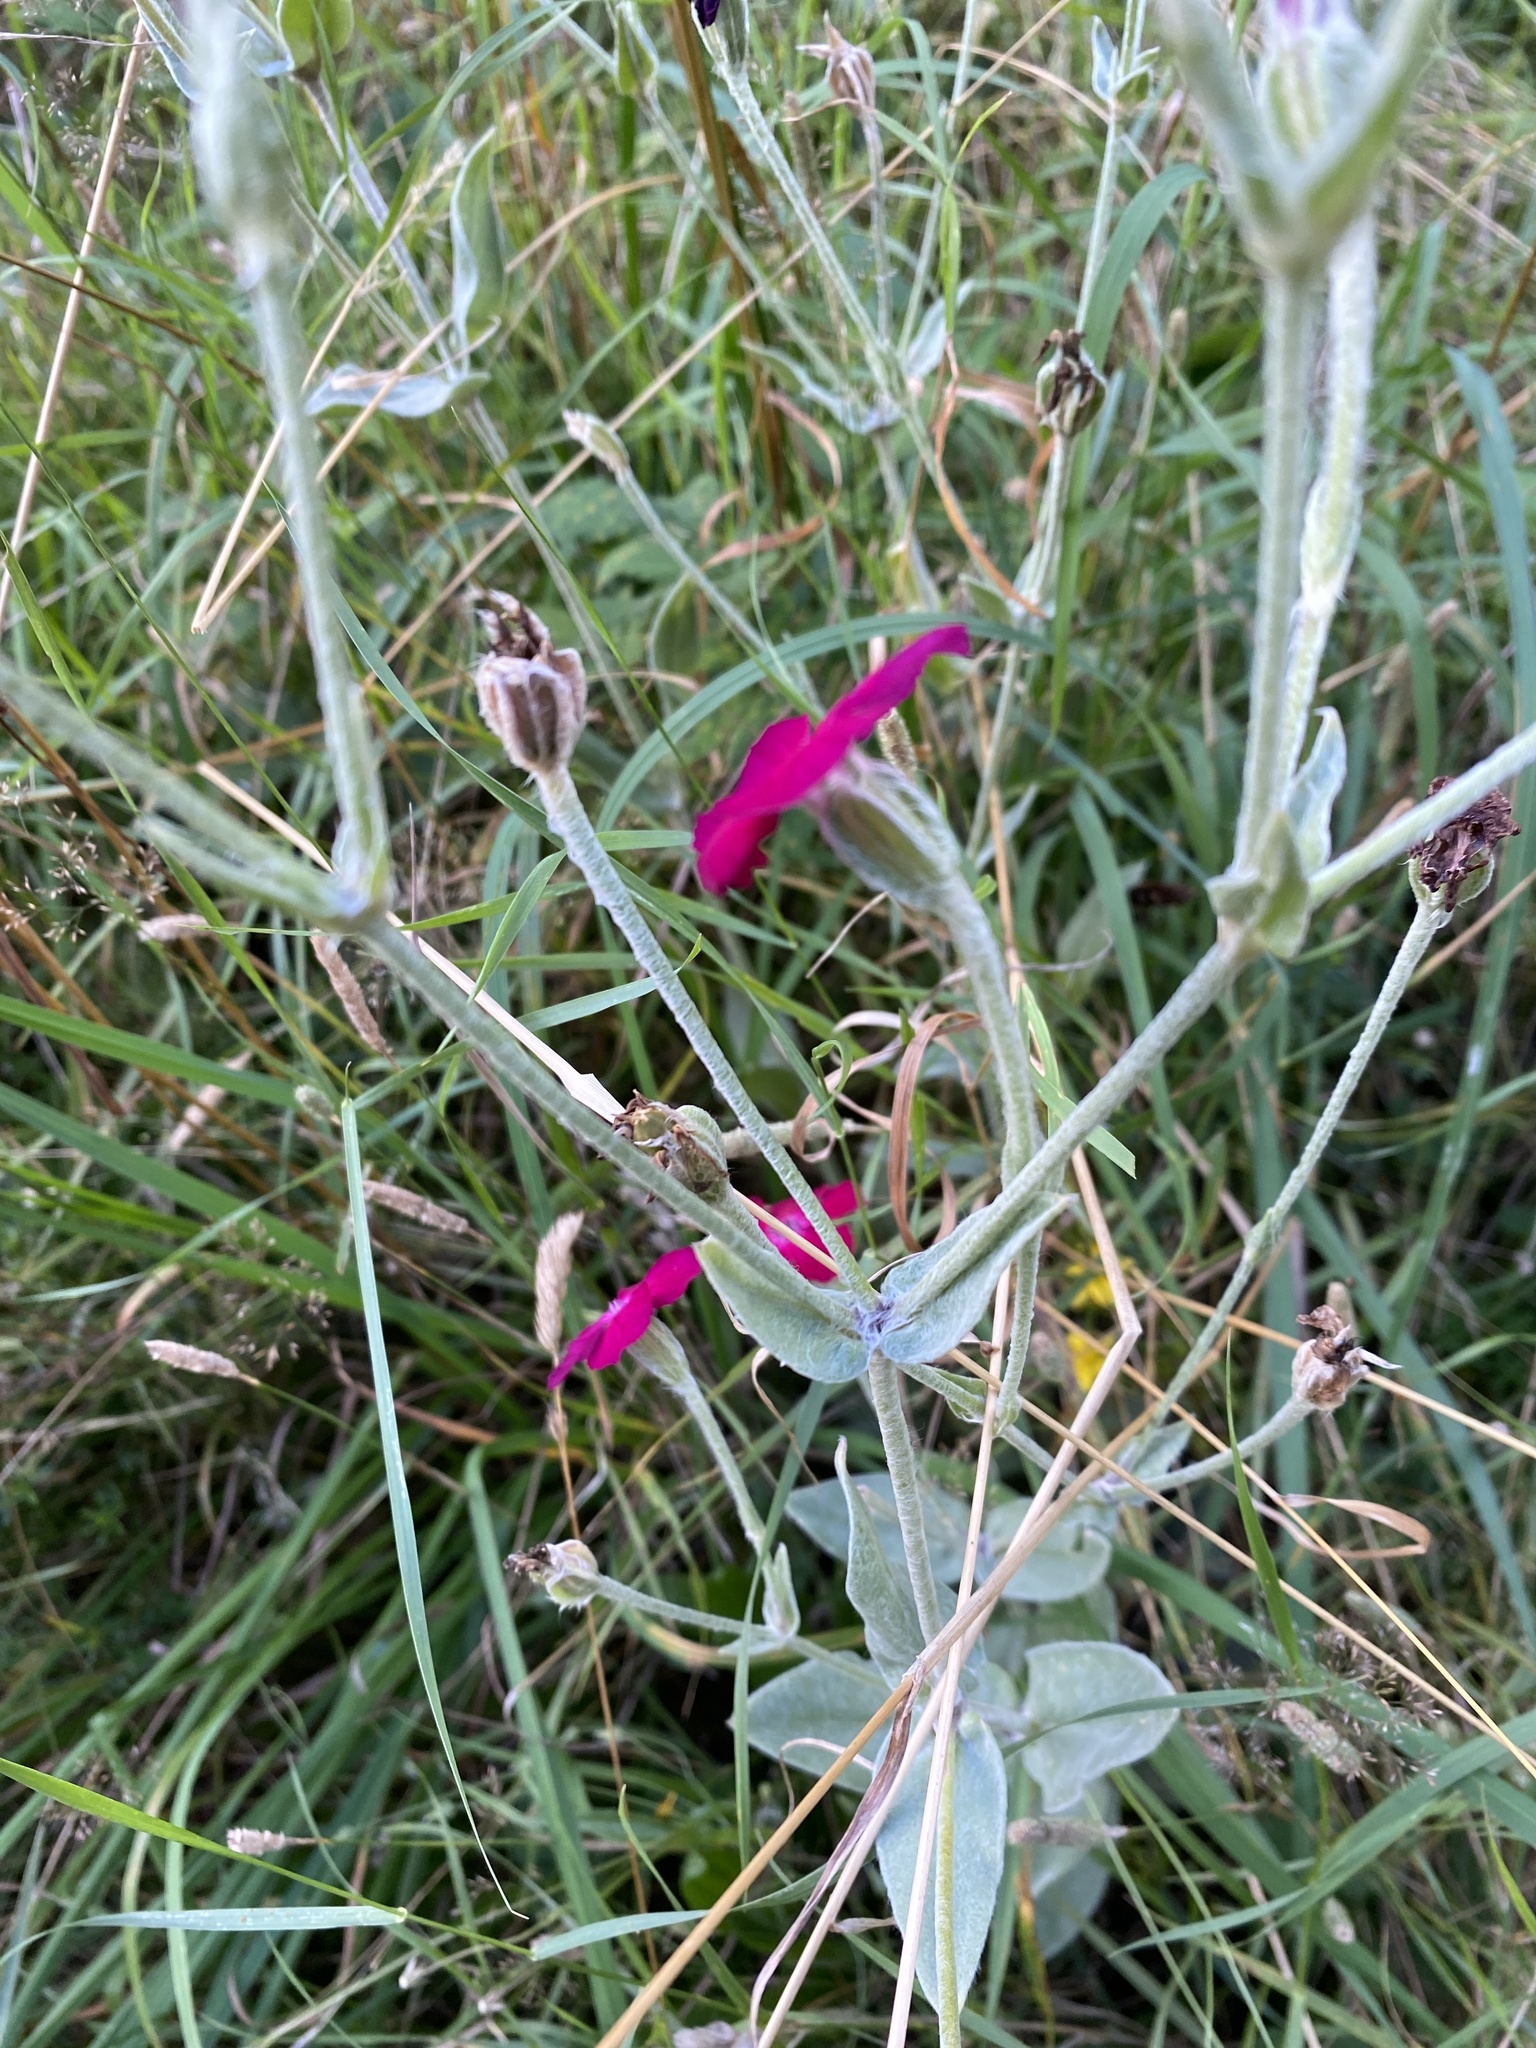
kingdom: Plantae
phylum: Tracheophyta
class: Magnoliopsida
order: Caryophyllales
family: Caryophyllaceae
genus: Silene
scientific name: Silene coronaria
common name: Rose campion
